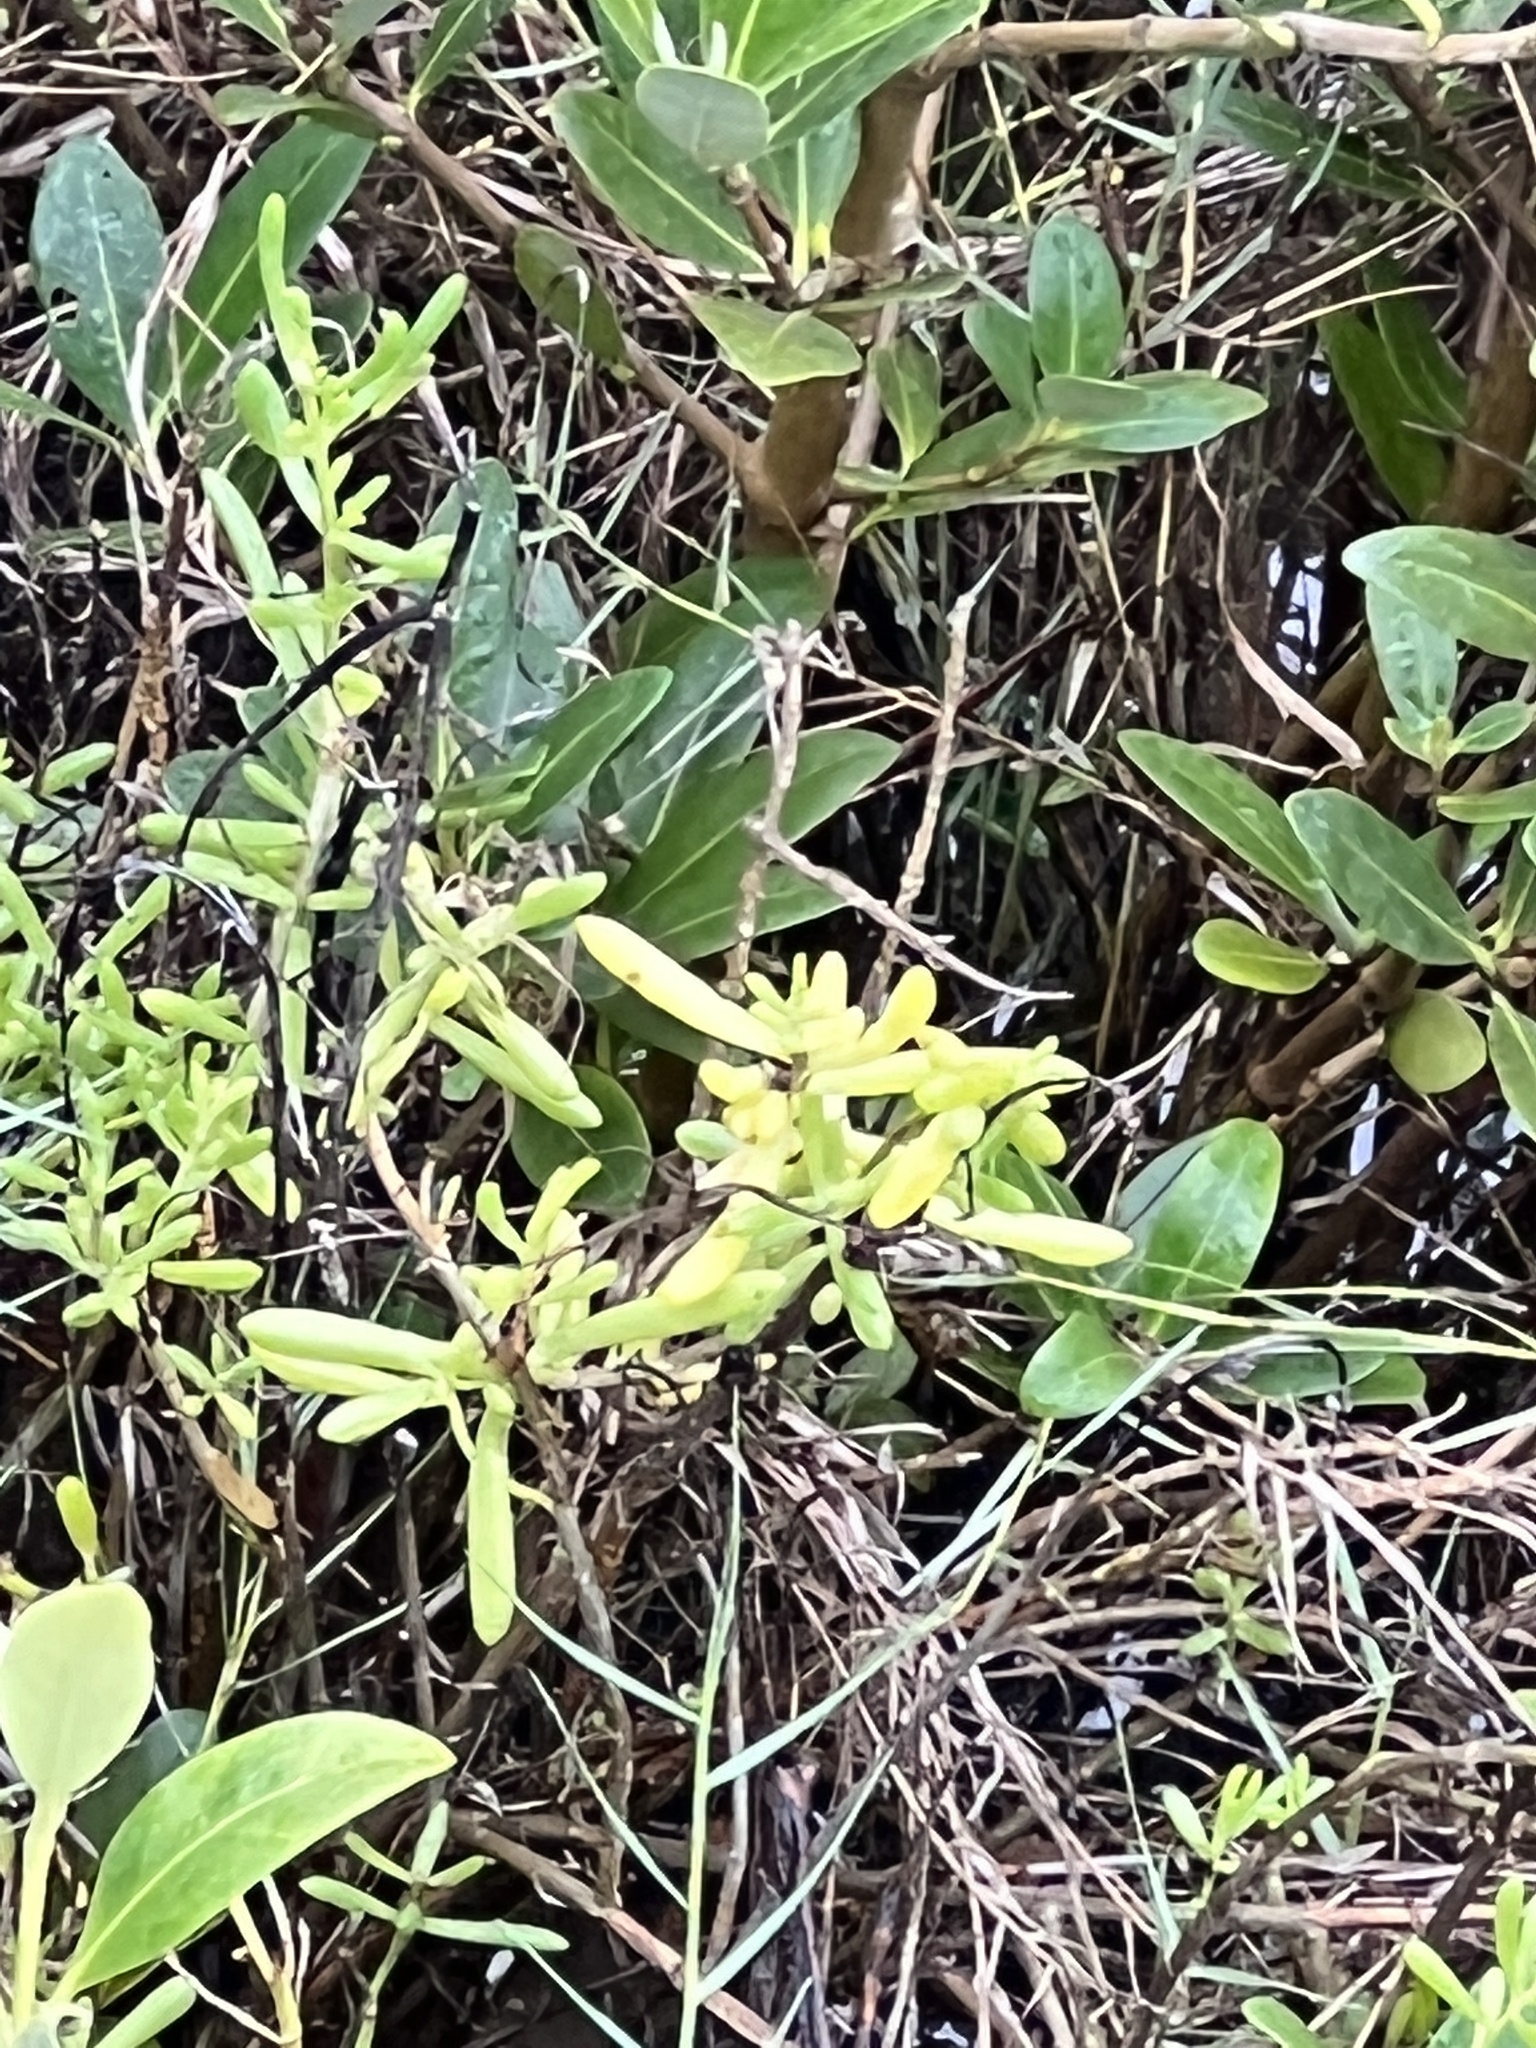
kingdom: Plantae
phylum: Tracheophyta
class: Magnoliopsida
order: Brassicales
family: Bataceae
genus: Batis
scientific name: Batis maritima
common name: Turtleweed
